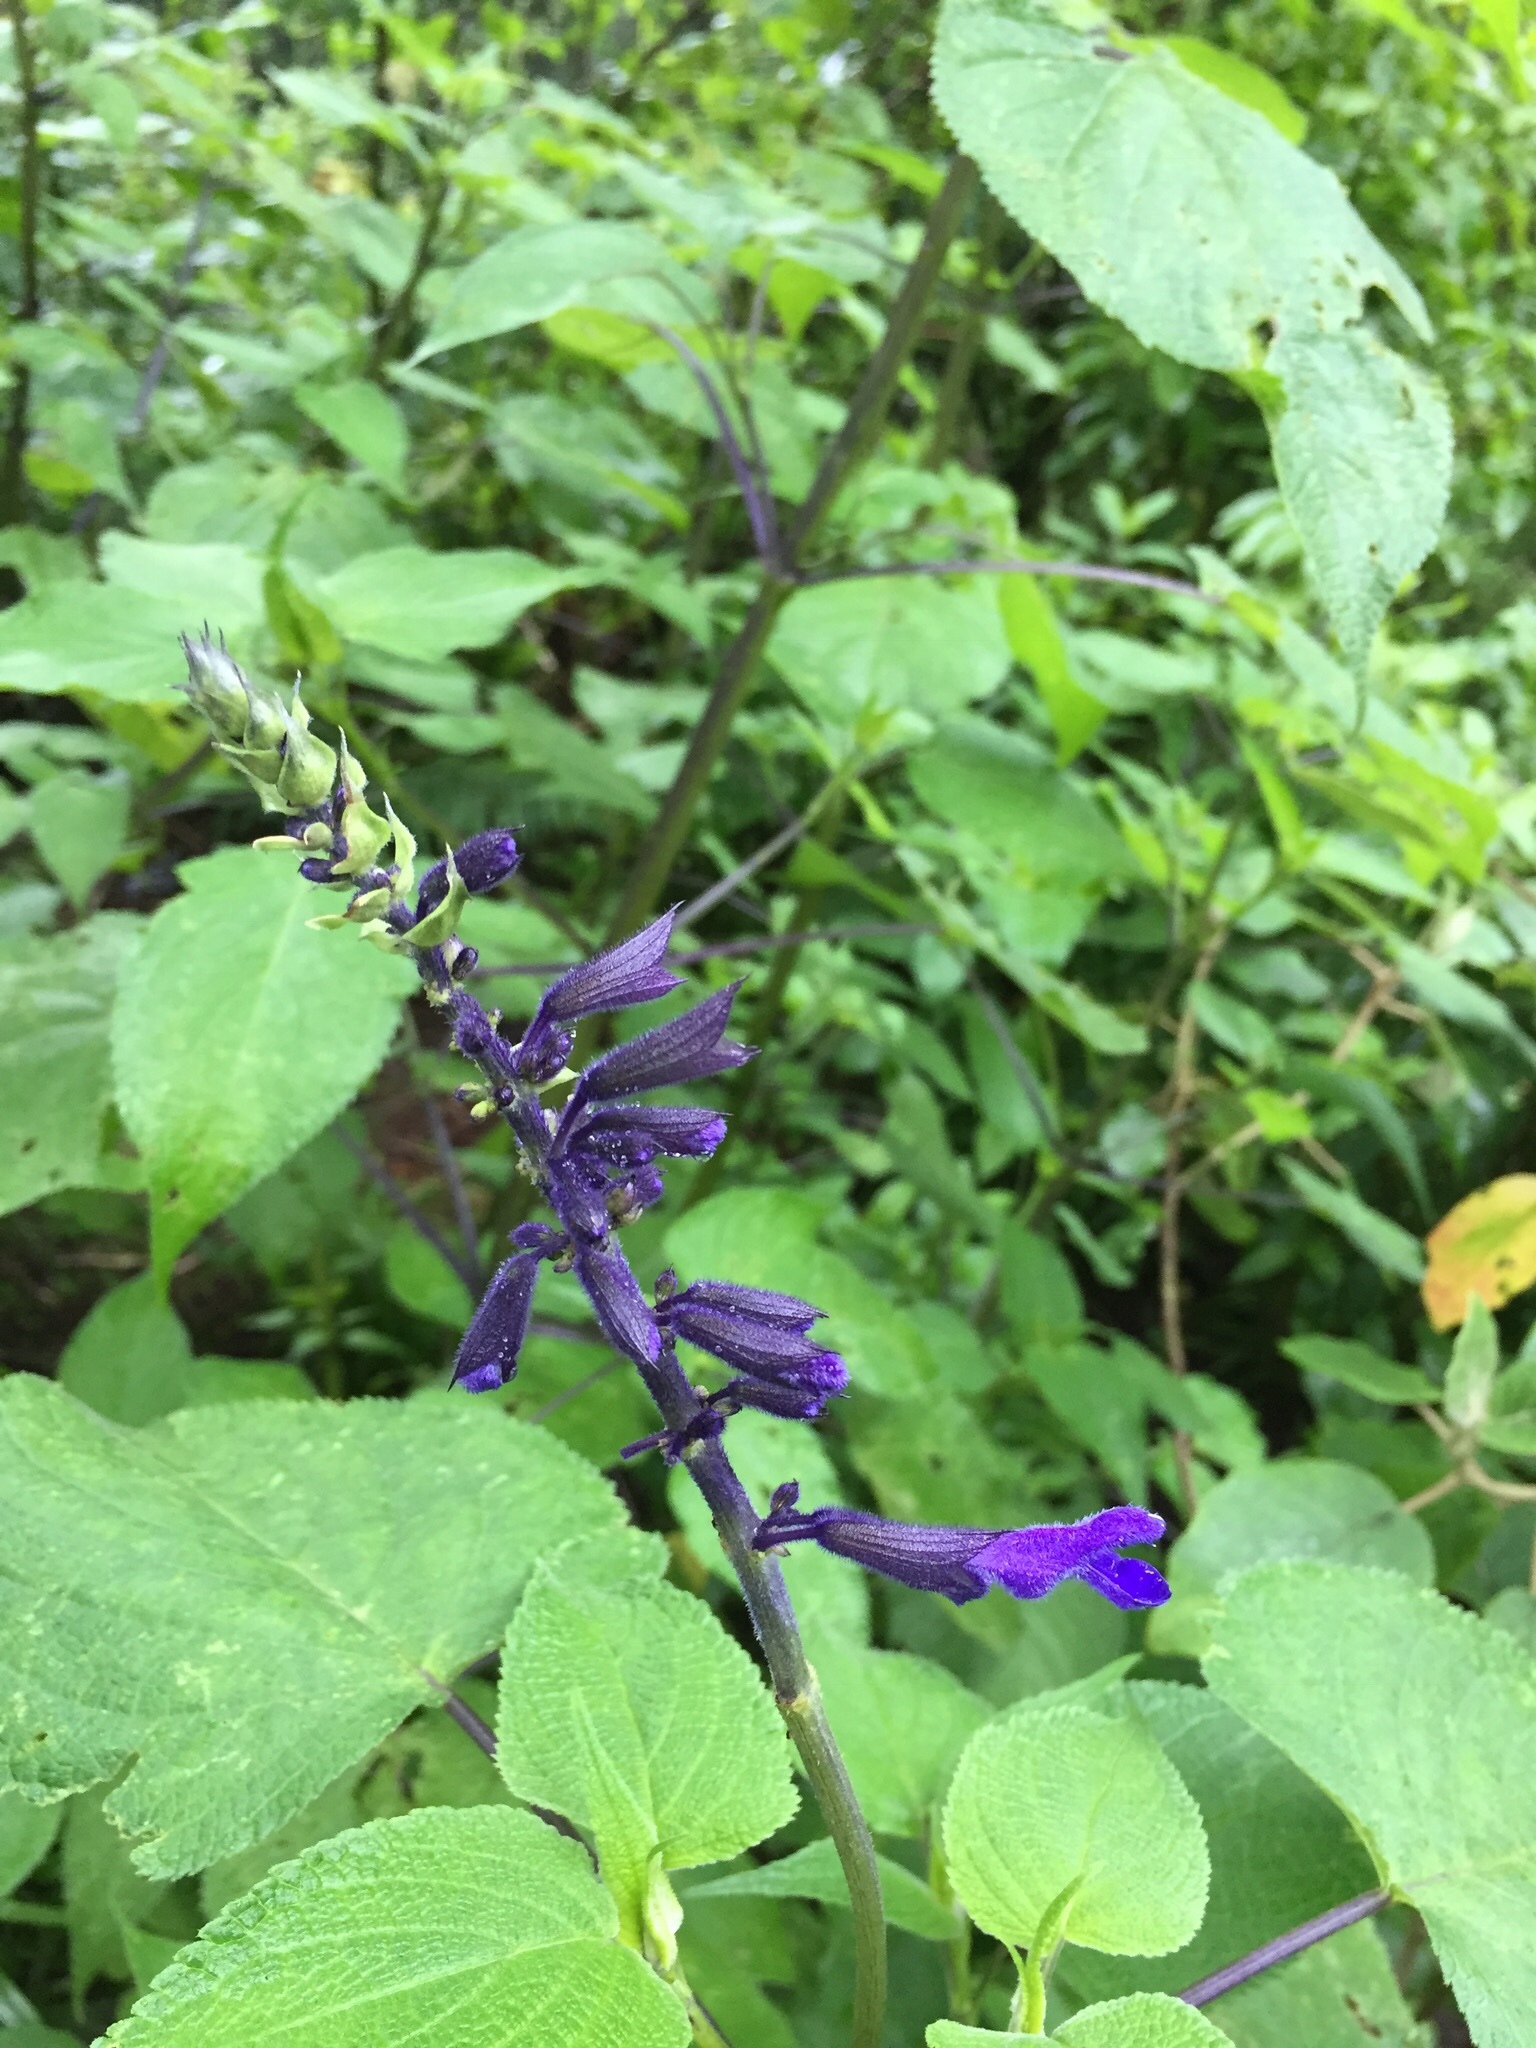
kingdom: Plantae
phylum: Tracheophyta
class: Magnoliopsida
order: Lamiales
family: Lamiaceae
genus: Salvia
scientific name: Salvia concolor
